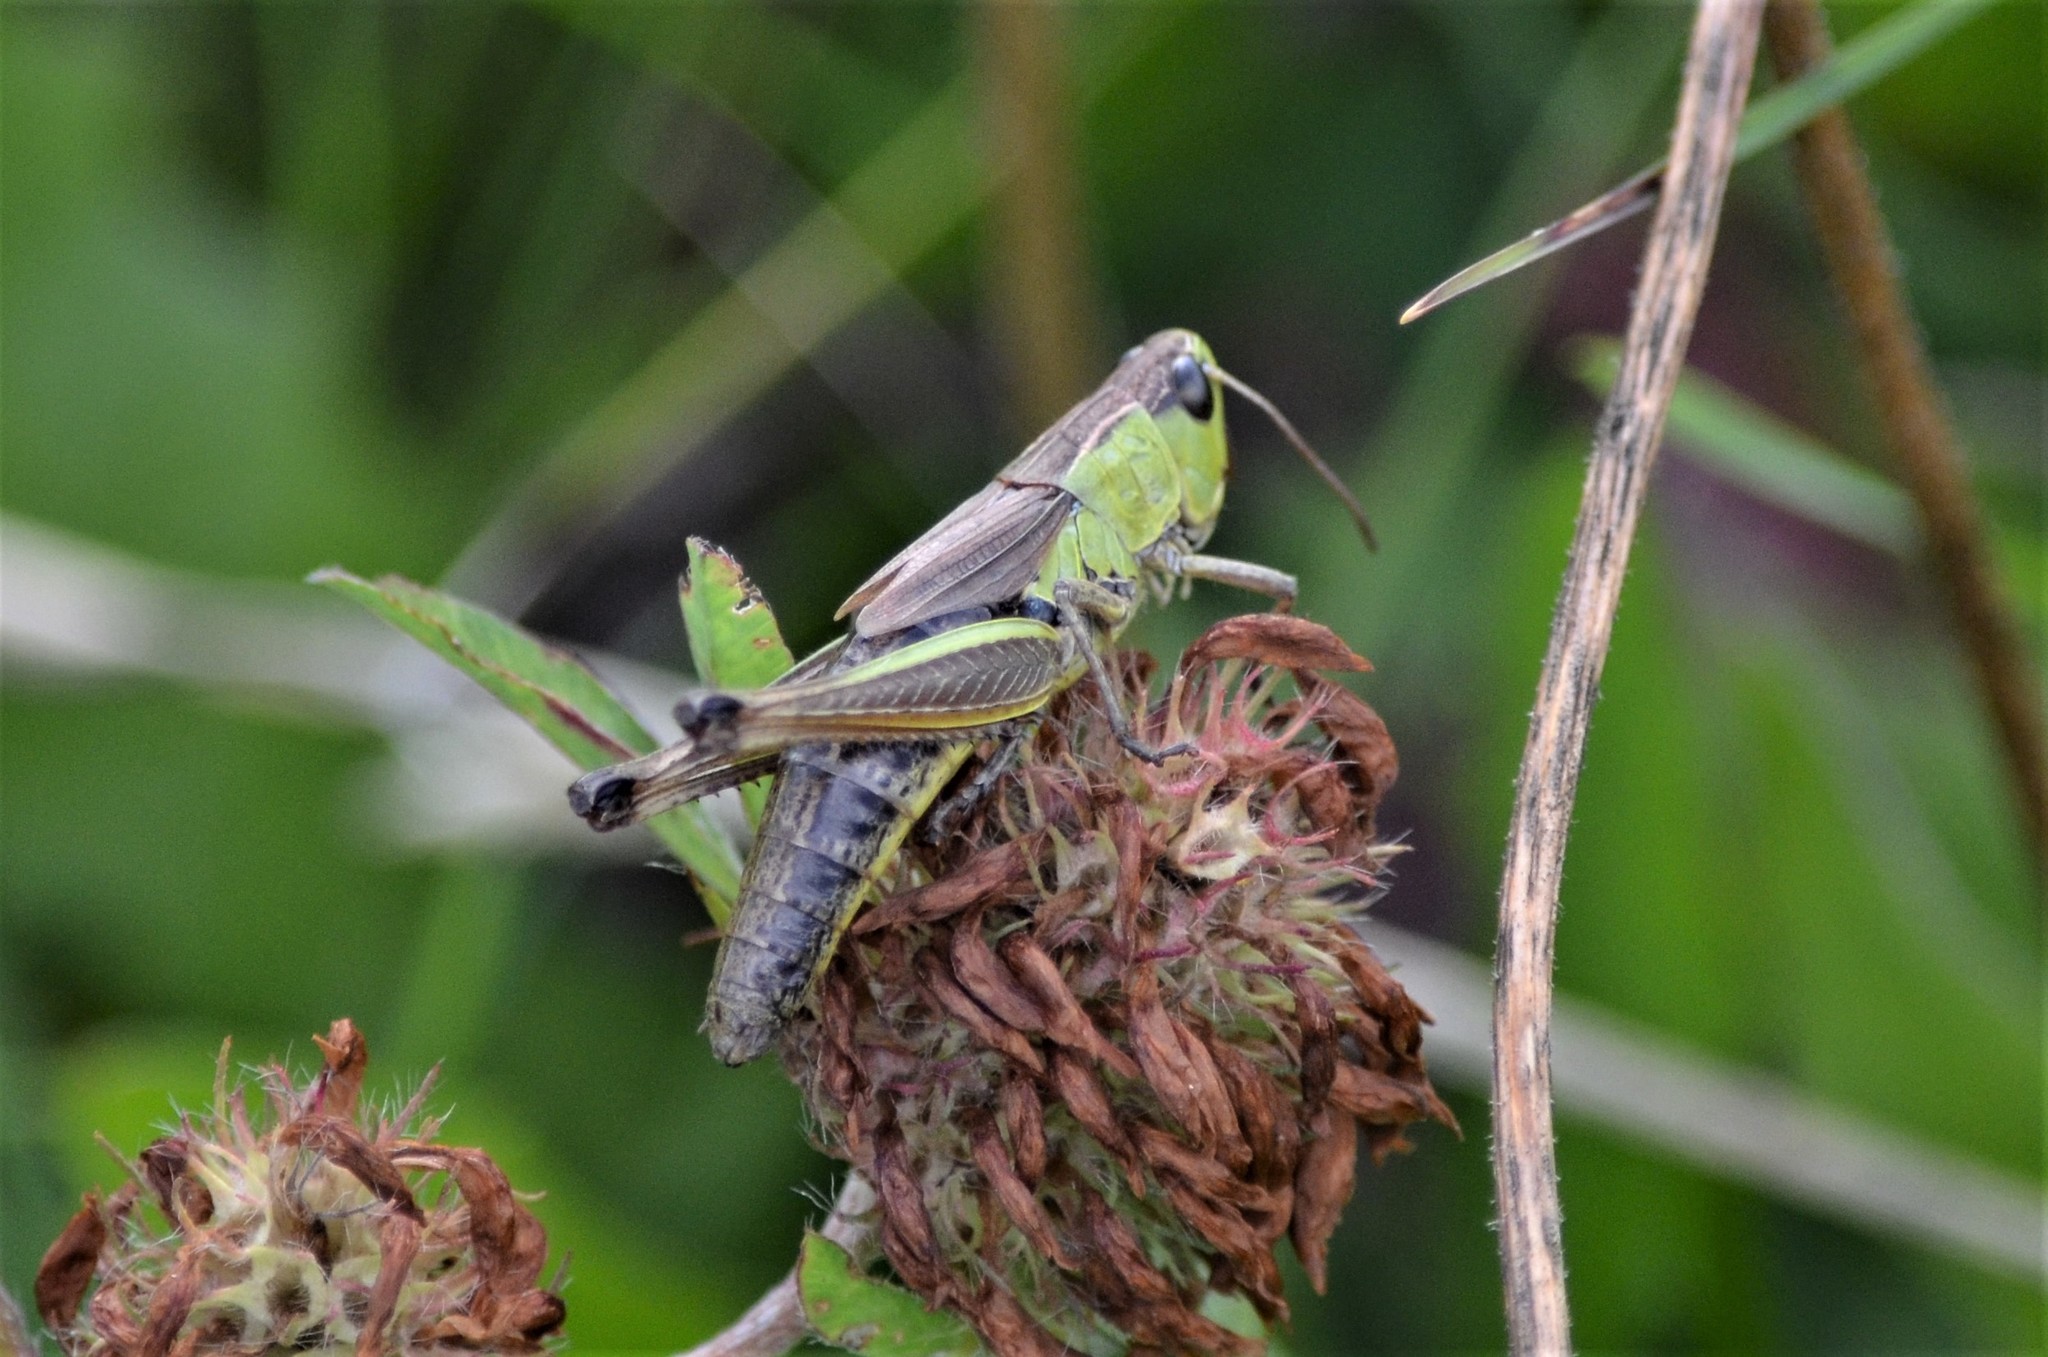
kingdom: Animalia
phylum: Arthropoda
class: Insecta
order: Orthoptera
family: Acrididae
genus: Pseudochorthippus
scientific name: Pseudochorthippus parallelus
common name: Meadow grasshopper
